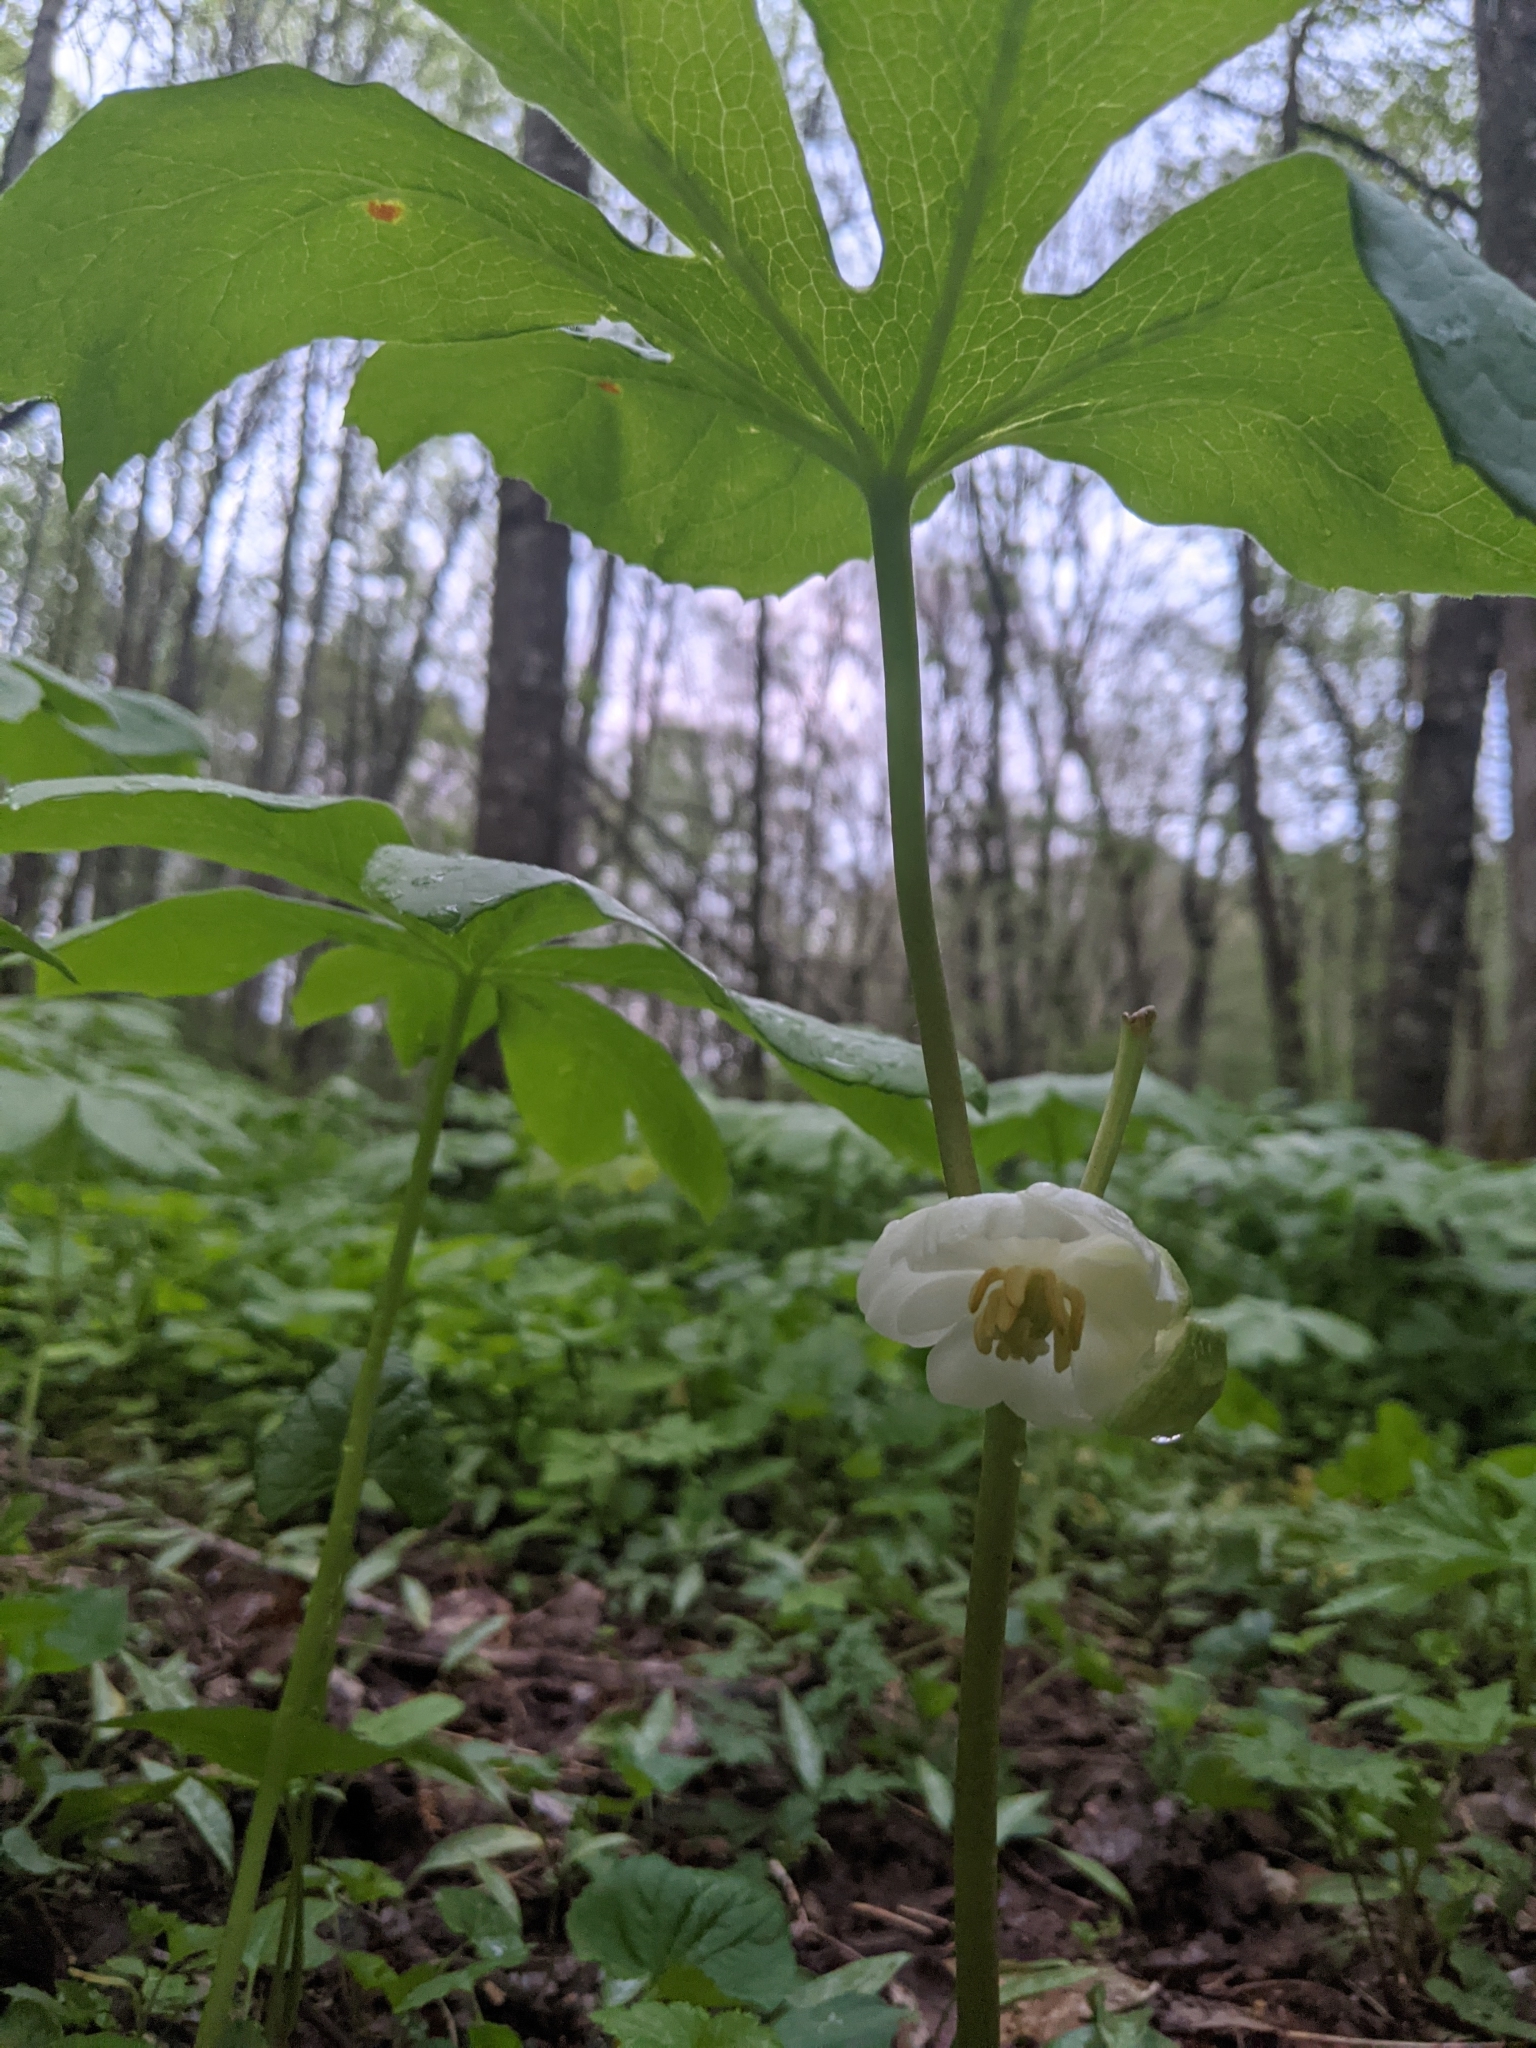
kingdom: Plantae
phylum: Tracheophyta
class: Magnoliopsida
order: Ranunculales
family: Berberidaceae
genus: Podophyllum
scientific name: Podophyllum peltatum
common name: Wild mandrake
